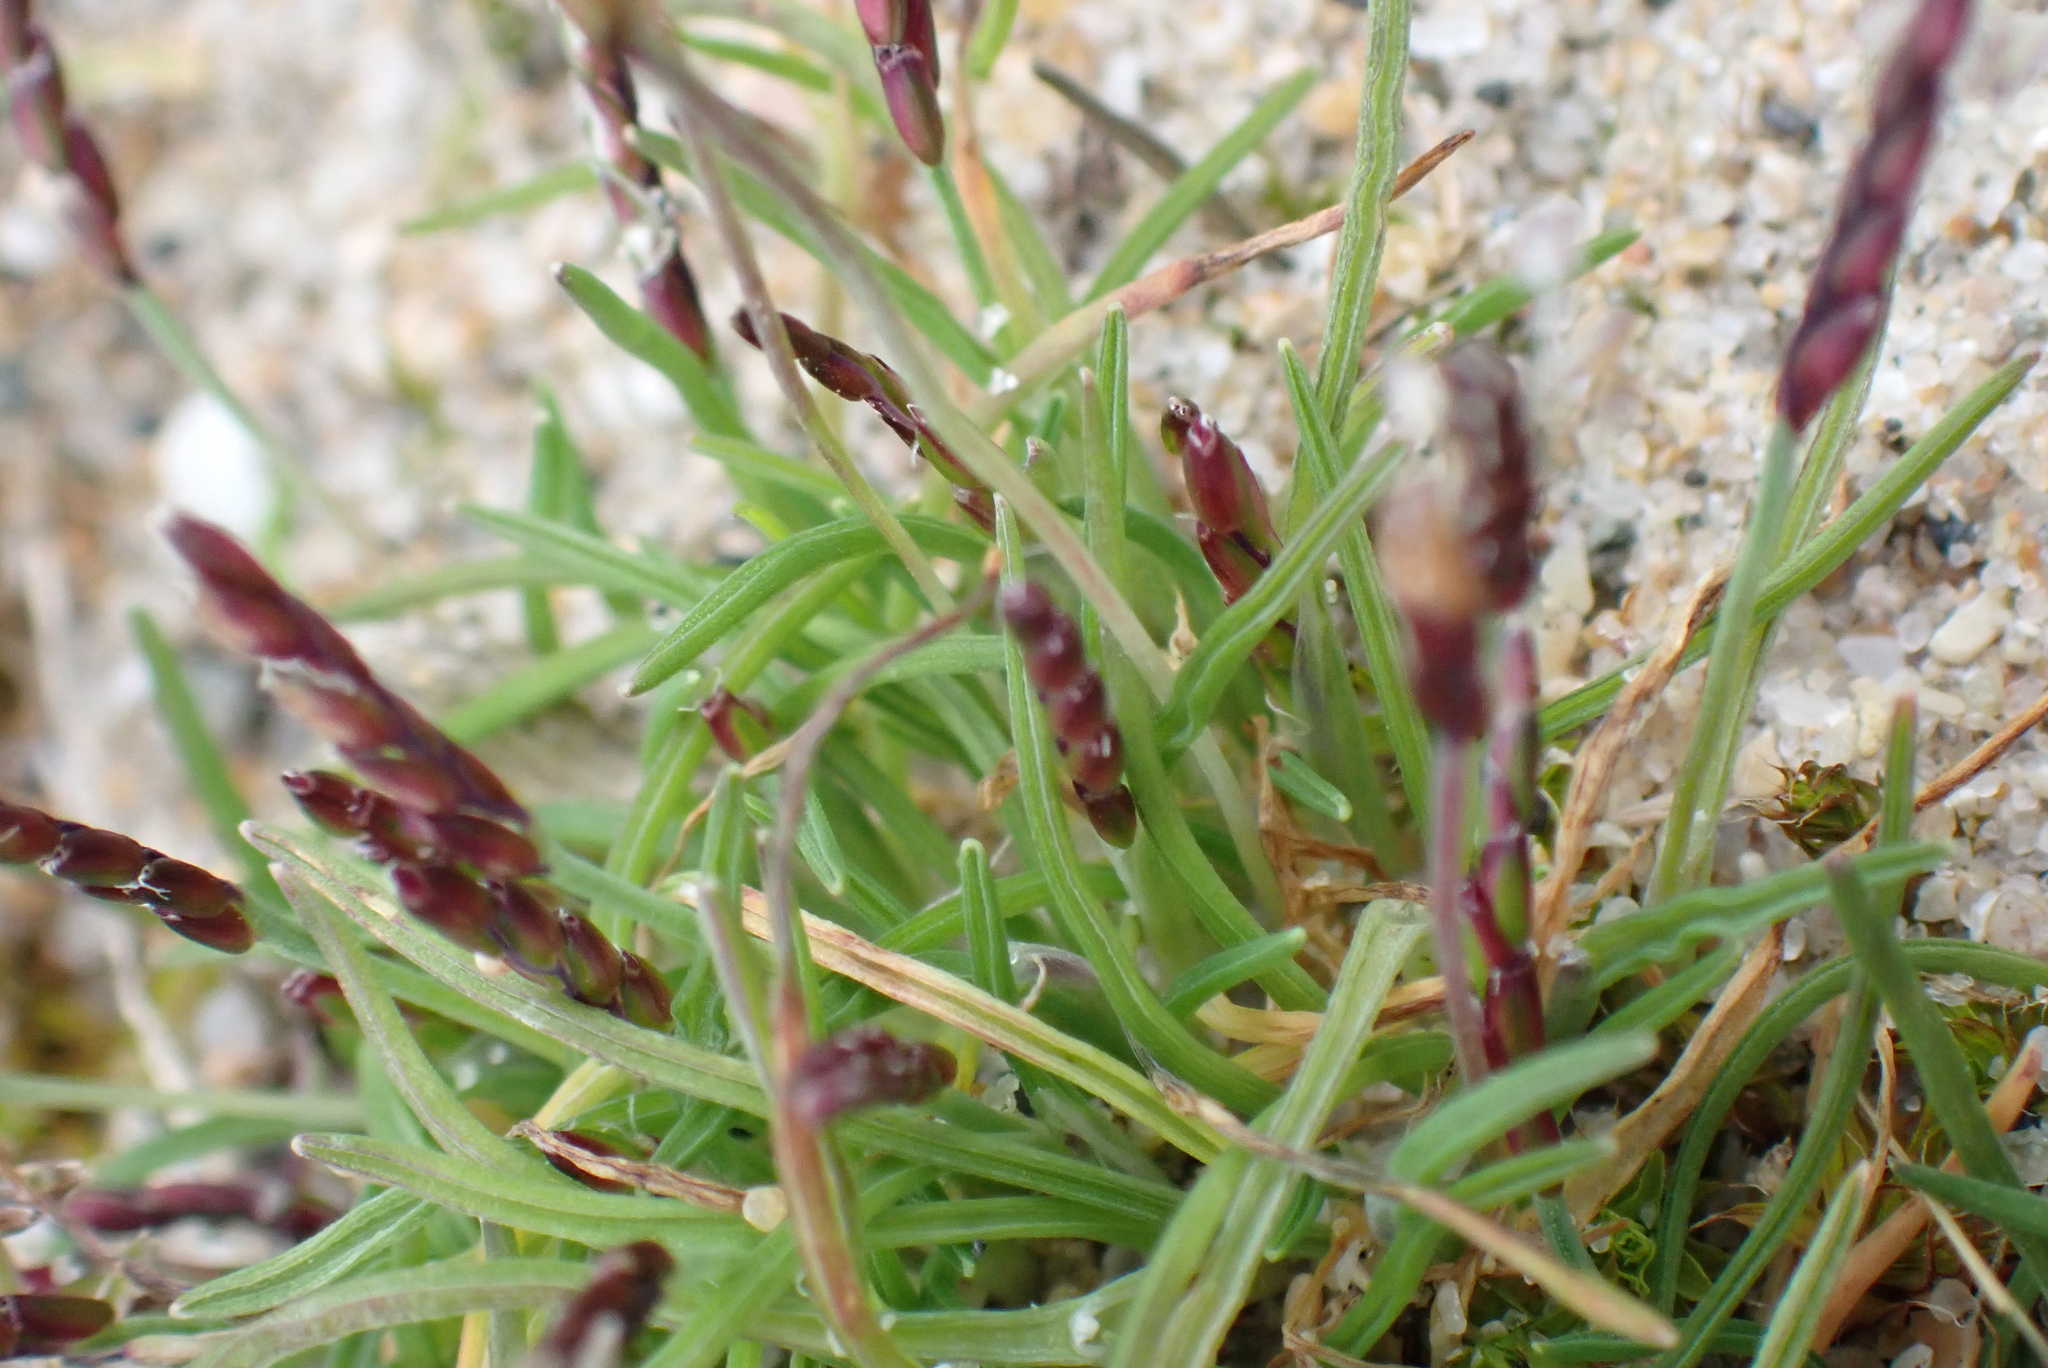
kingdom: Plantae
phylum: Tracheophyta
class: Liliopsida
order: Poales
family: Poaceae
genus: Mibora
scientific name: Mibora minima
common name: Early sand-grass
